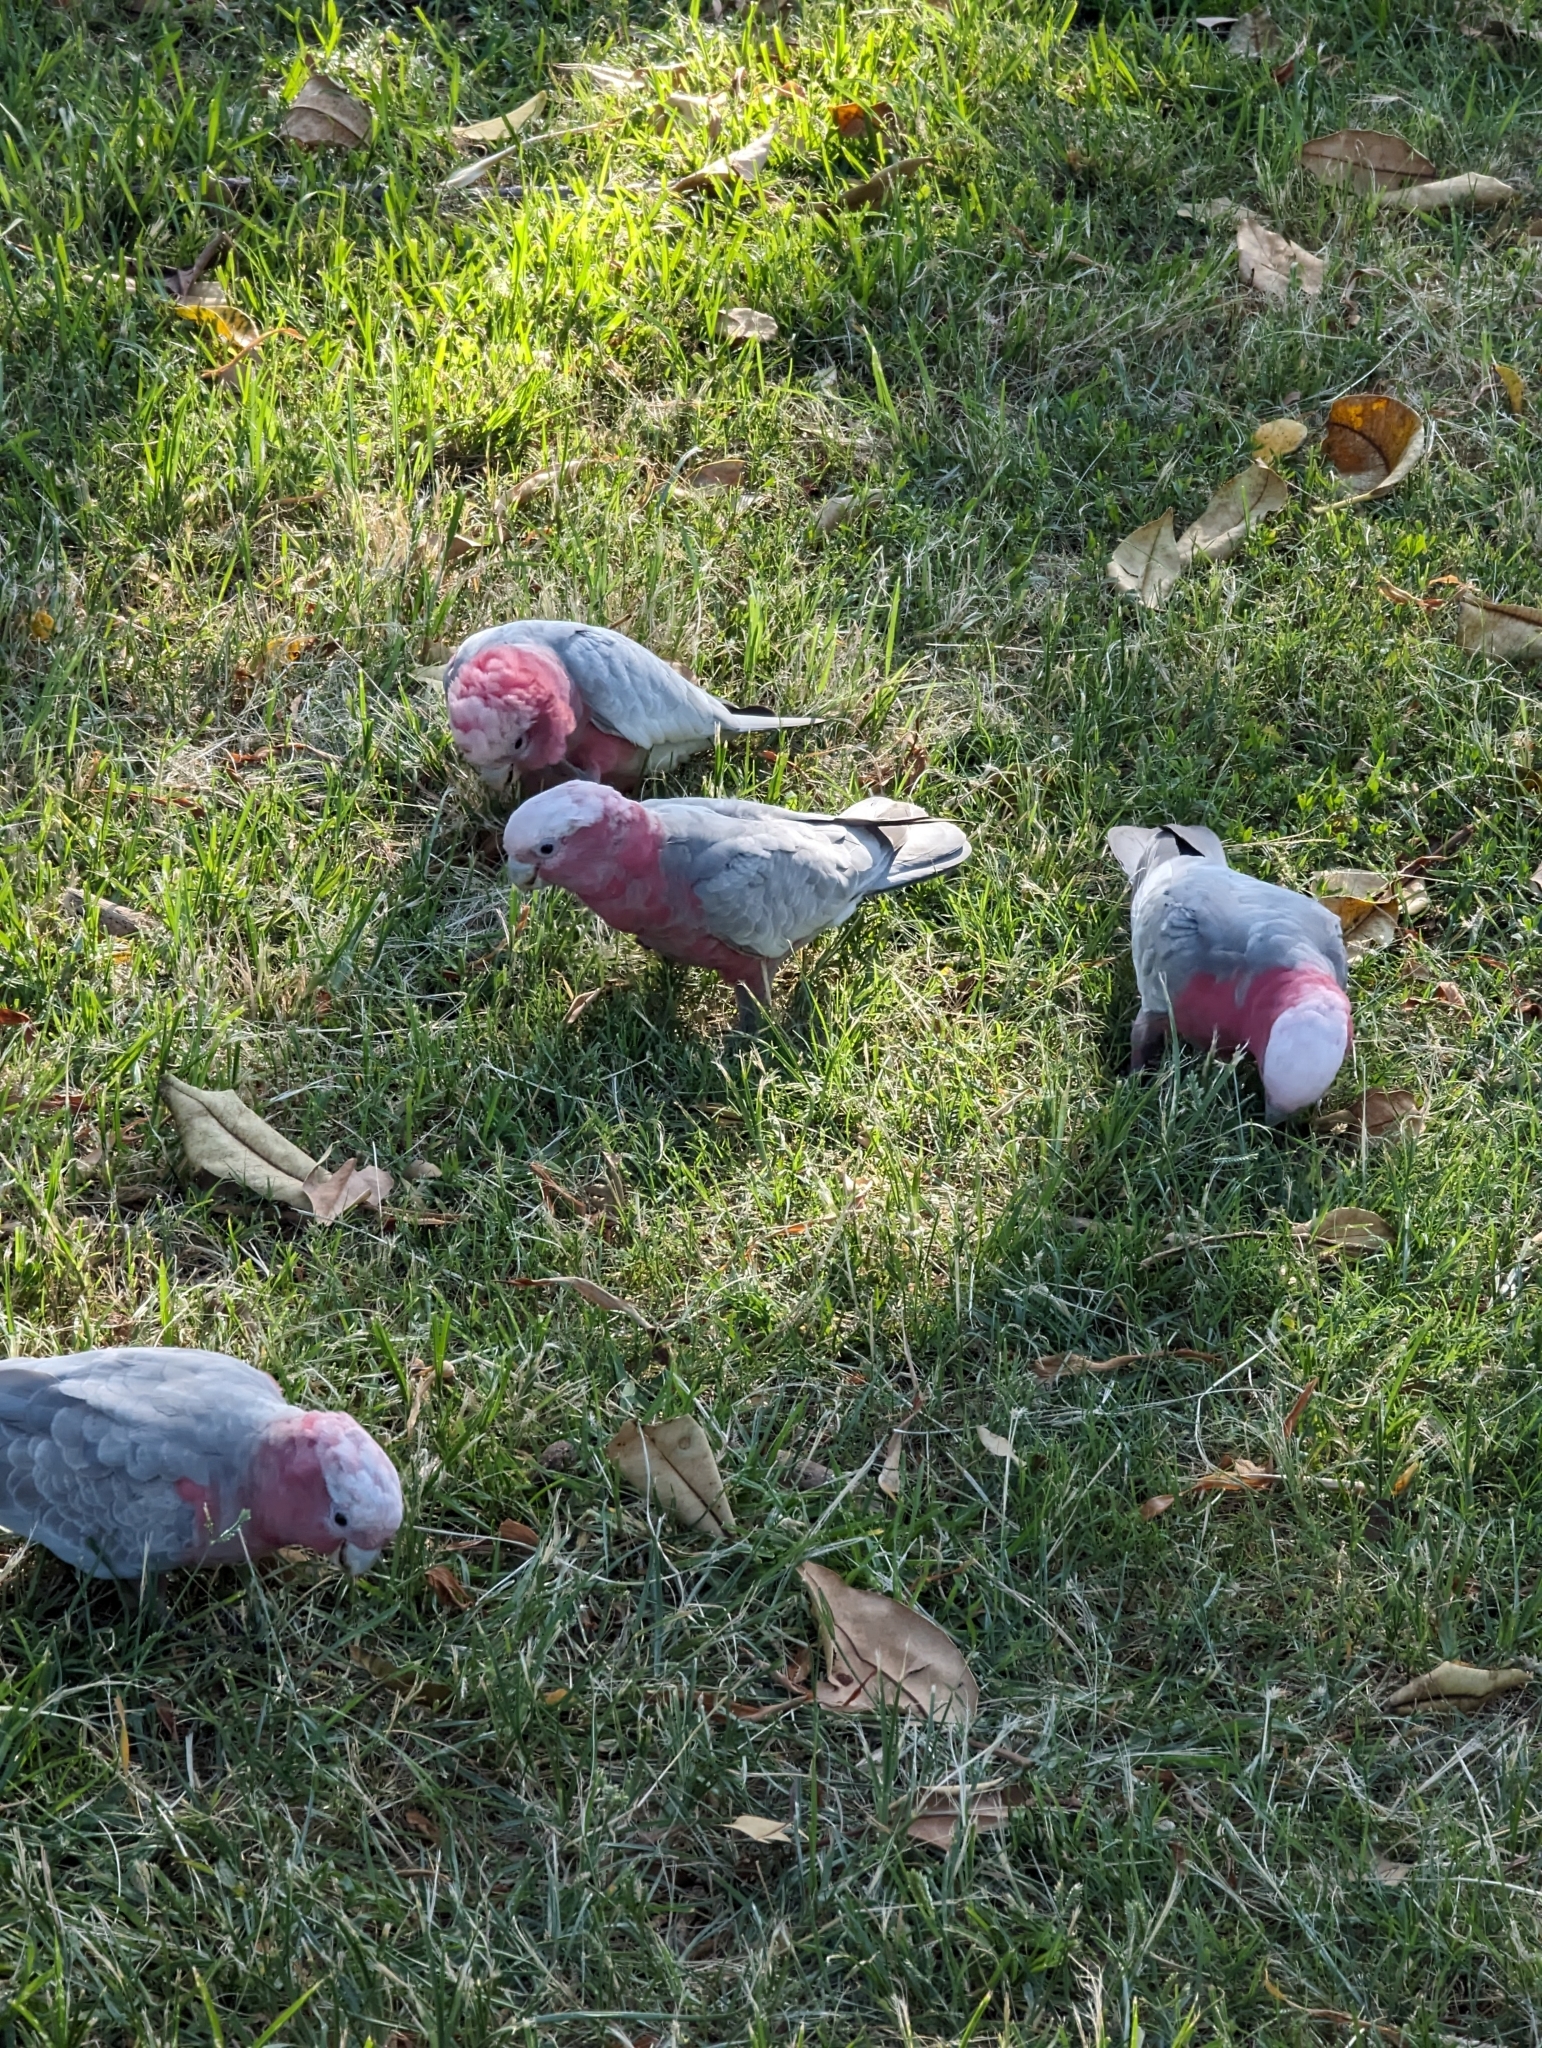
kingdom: Animalia
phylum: Chordata
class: Aves
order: Psittaciformes
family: Psittacidae
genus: Eolophus
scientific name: Eolophus roseicapilla
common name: Galah
